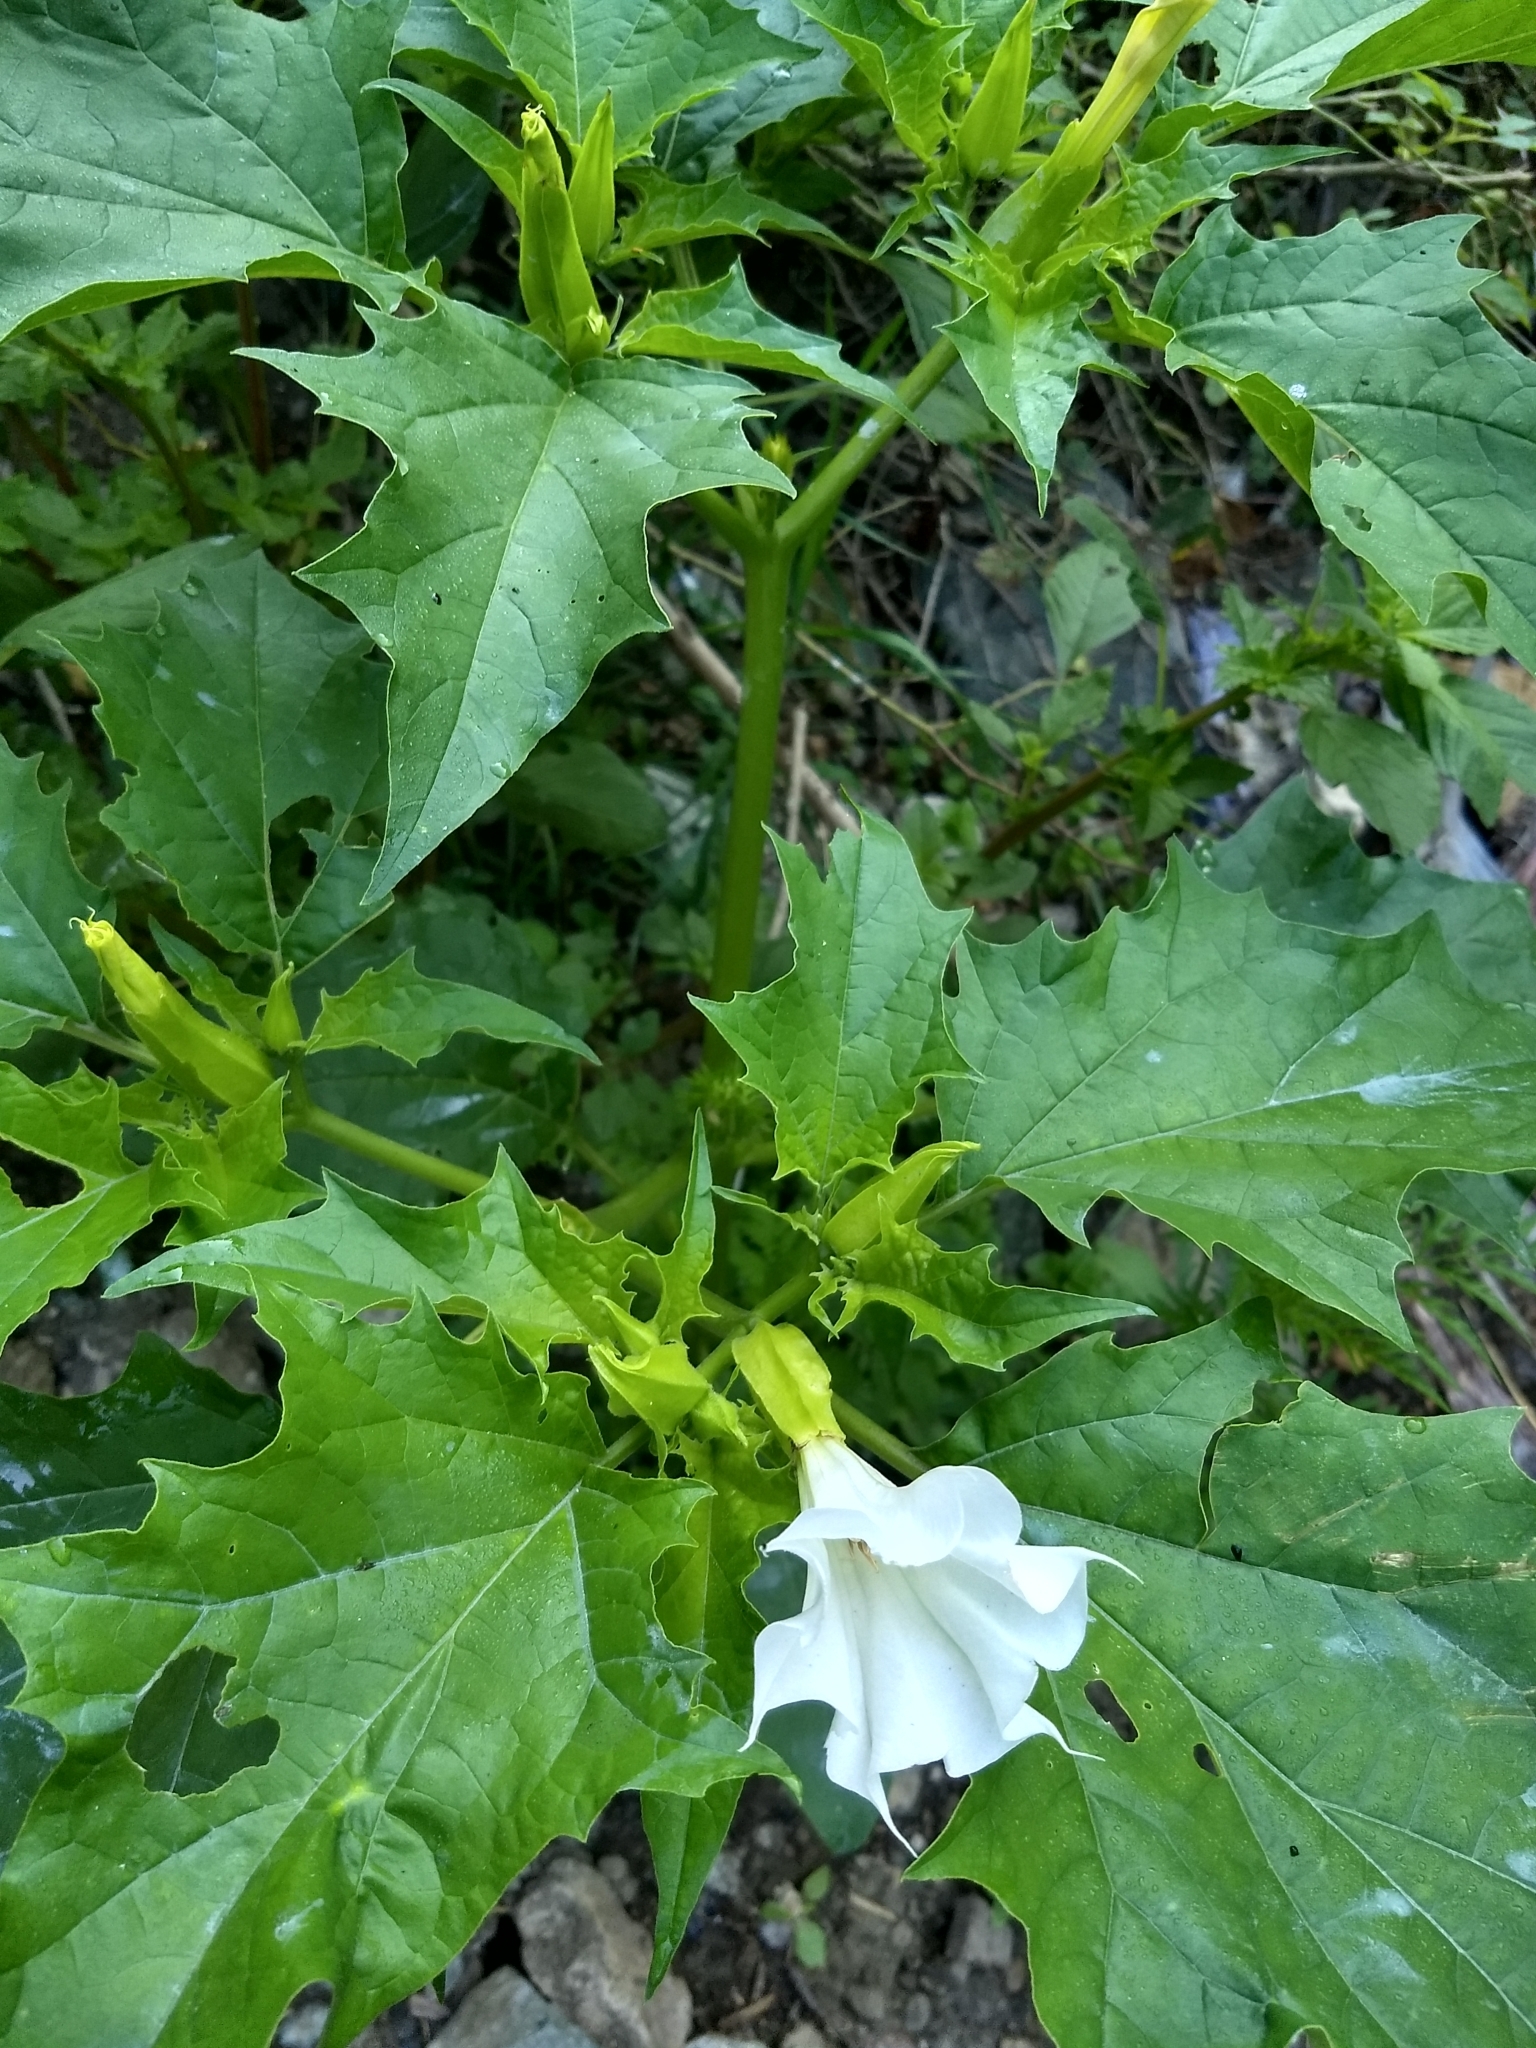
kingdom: Plantae
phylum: Tracheophyta
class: Magnoliopsida
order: Solanales
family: Solanaceae
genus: Datura
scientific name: Datura stramonium
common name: Thorn-apple
